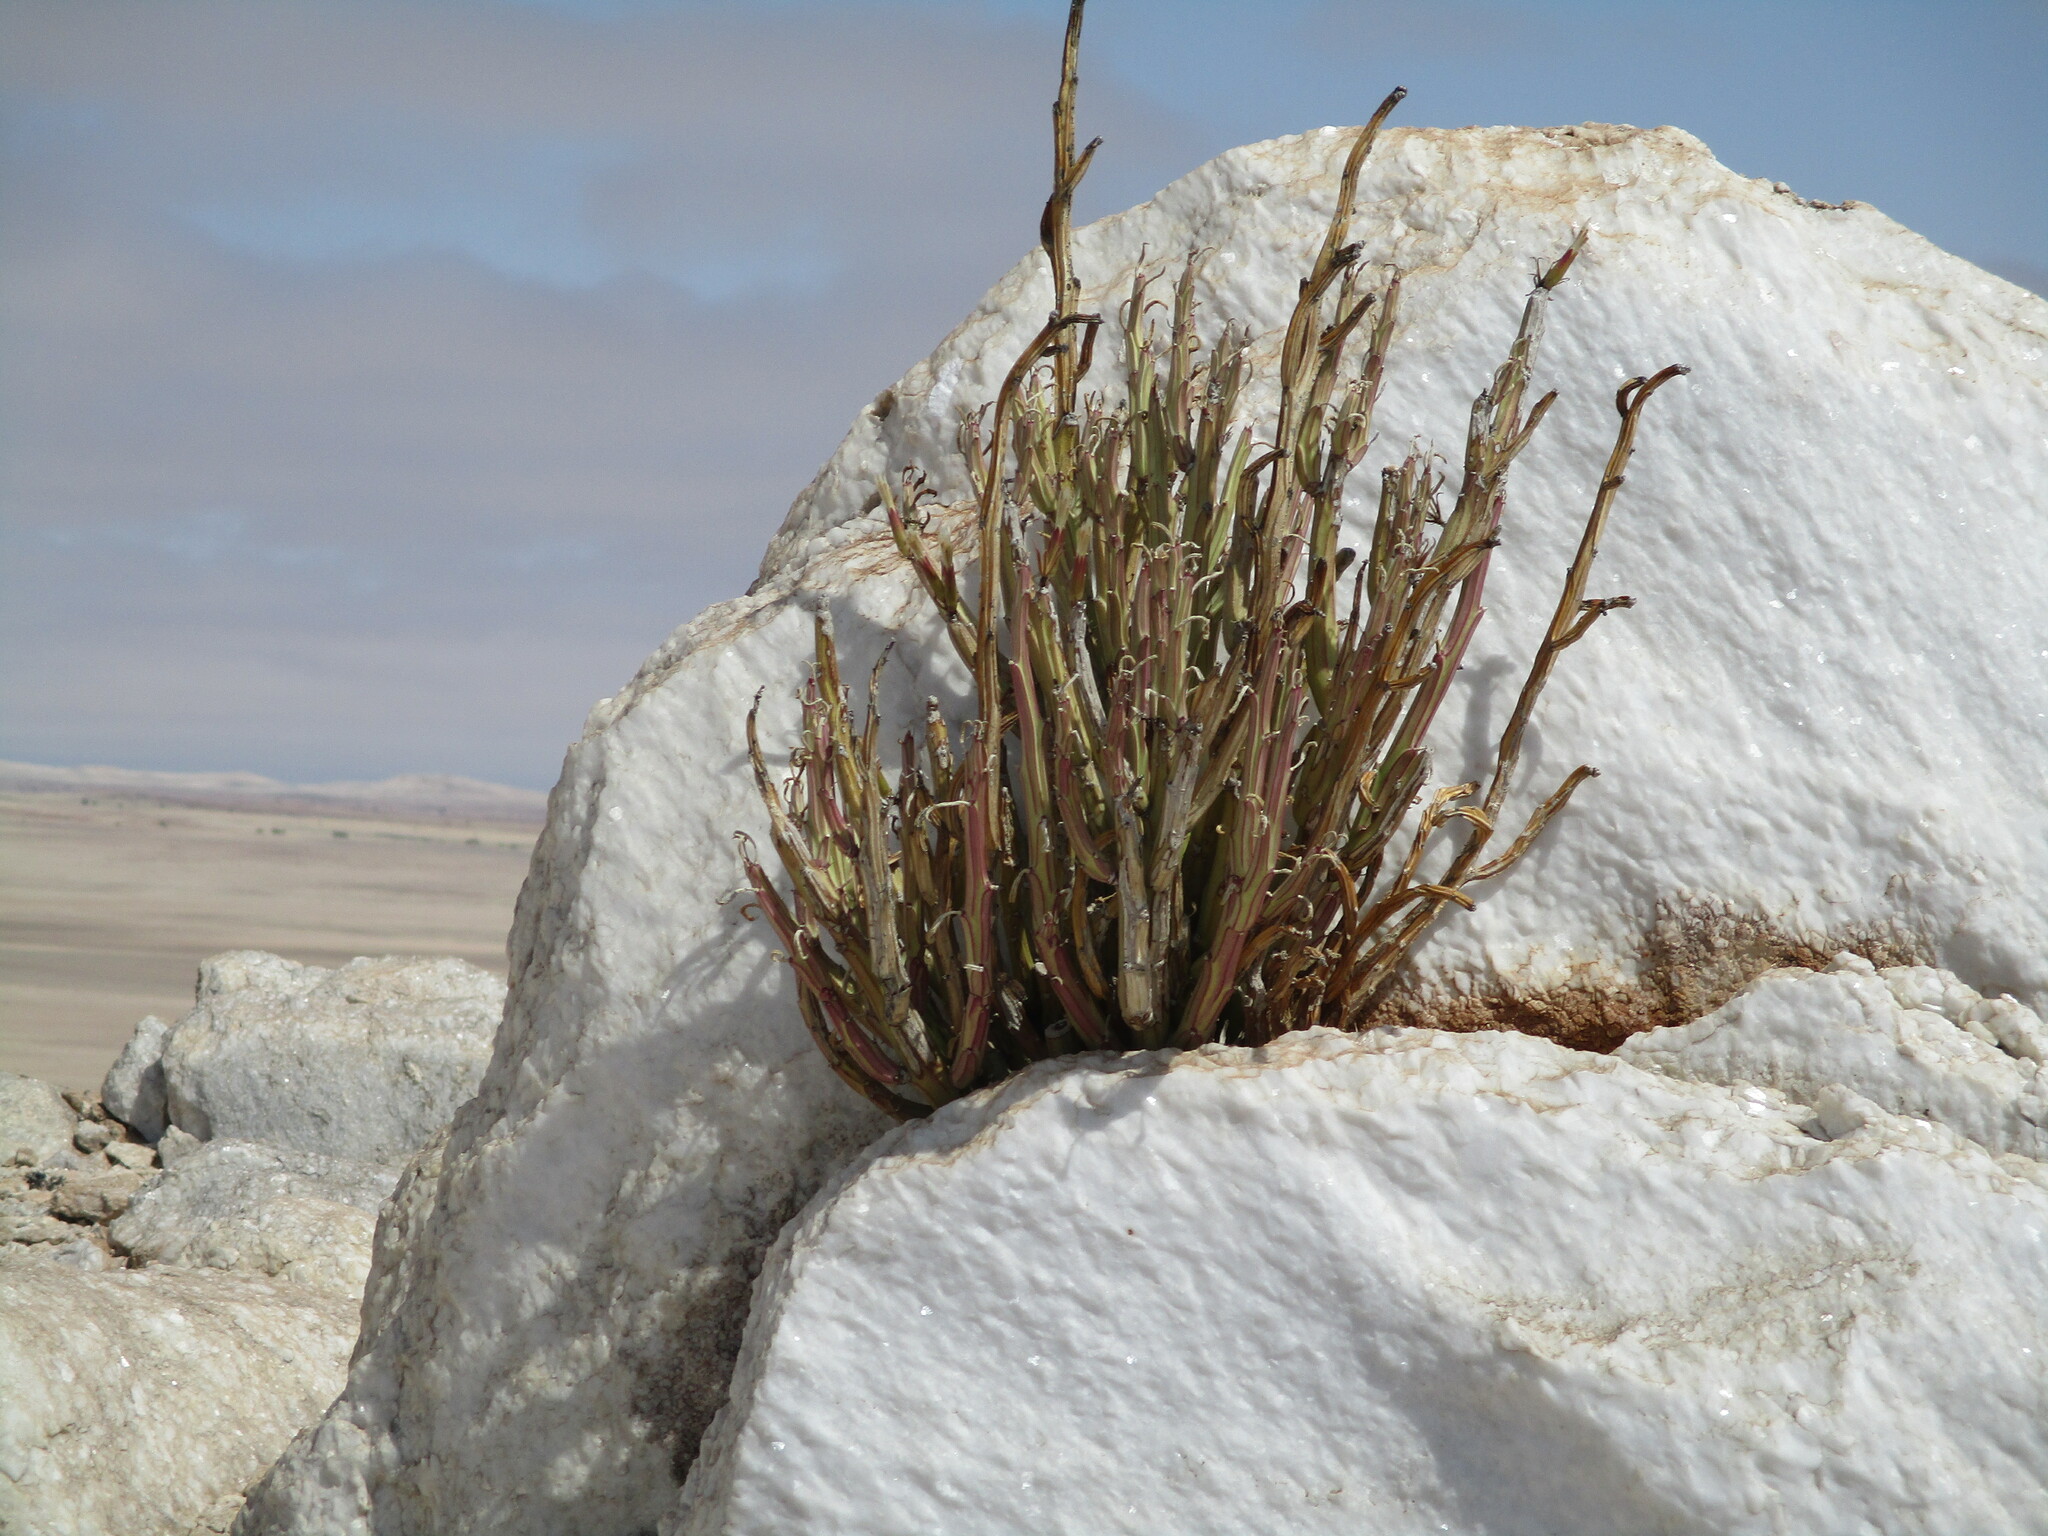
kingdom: Plantae
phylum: Tracheophyta
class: Magnoliopsida
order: Asterales
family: Asteraceae
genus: Curio
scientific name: Curio avasimontanus
